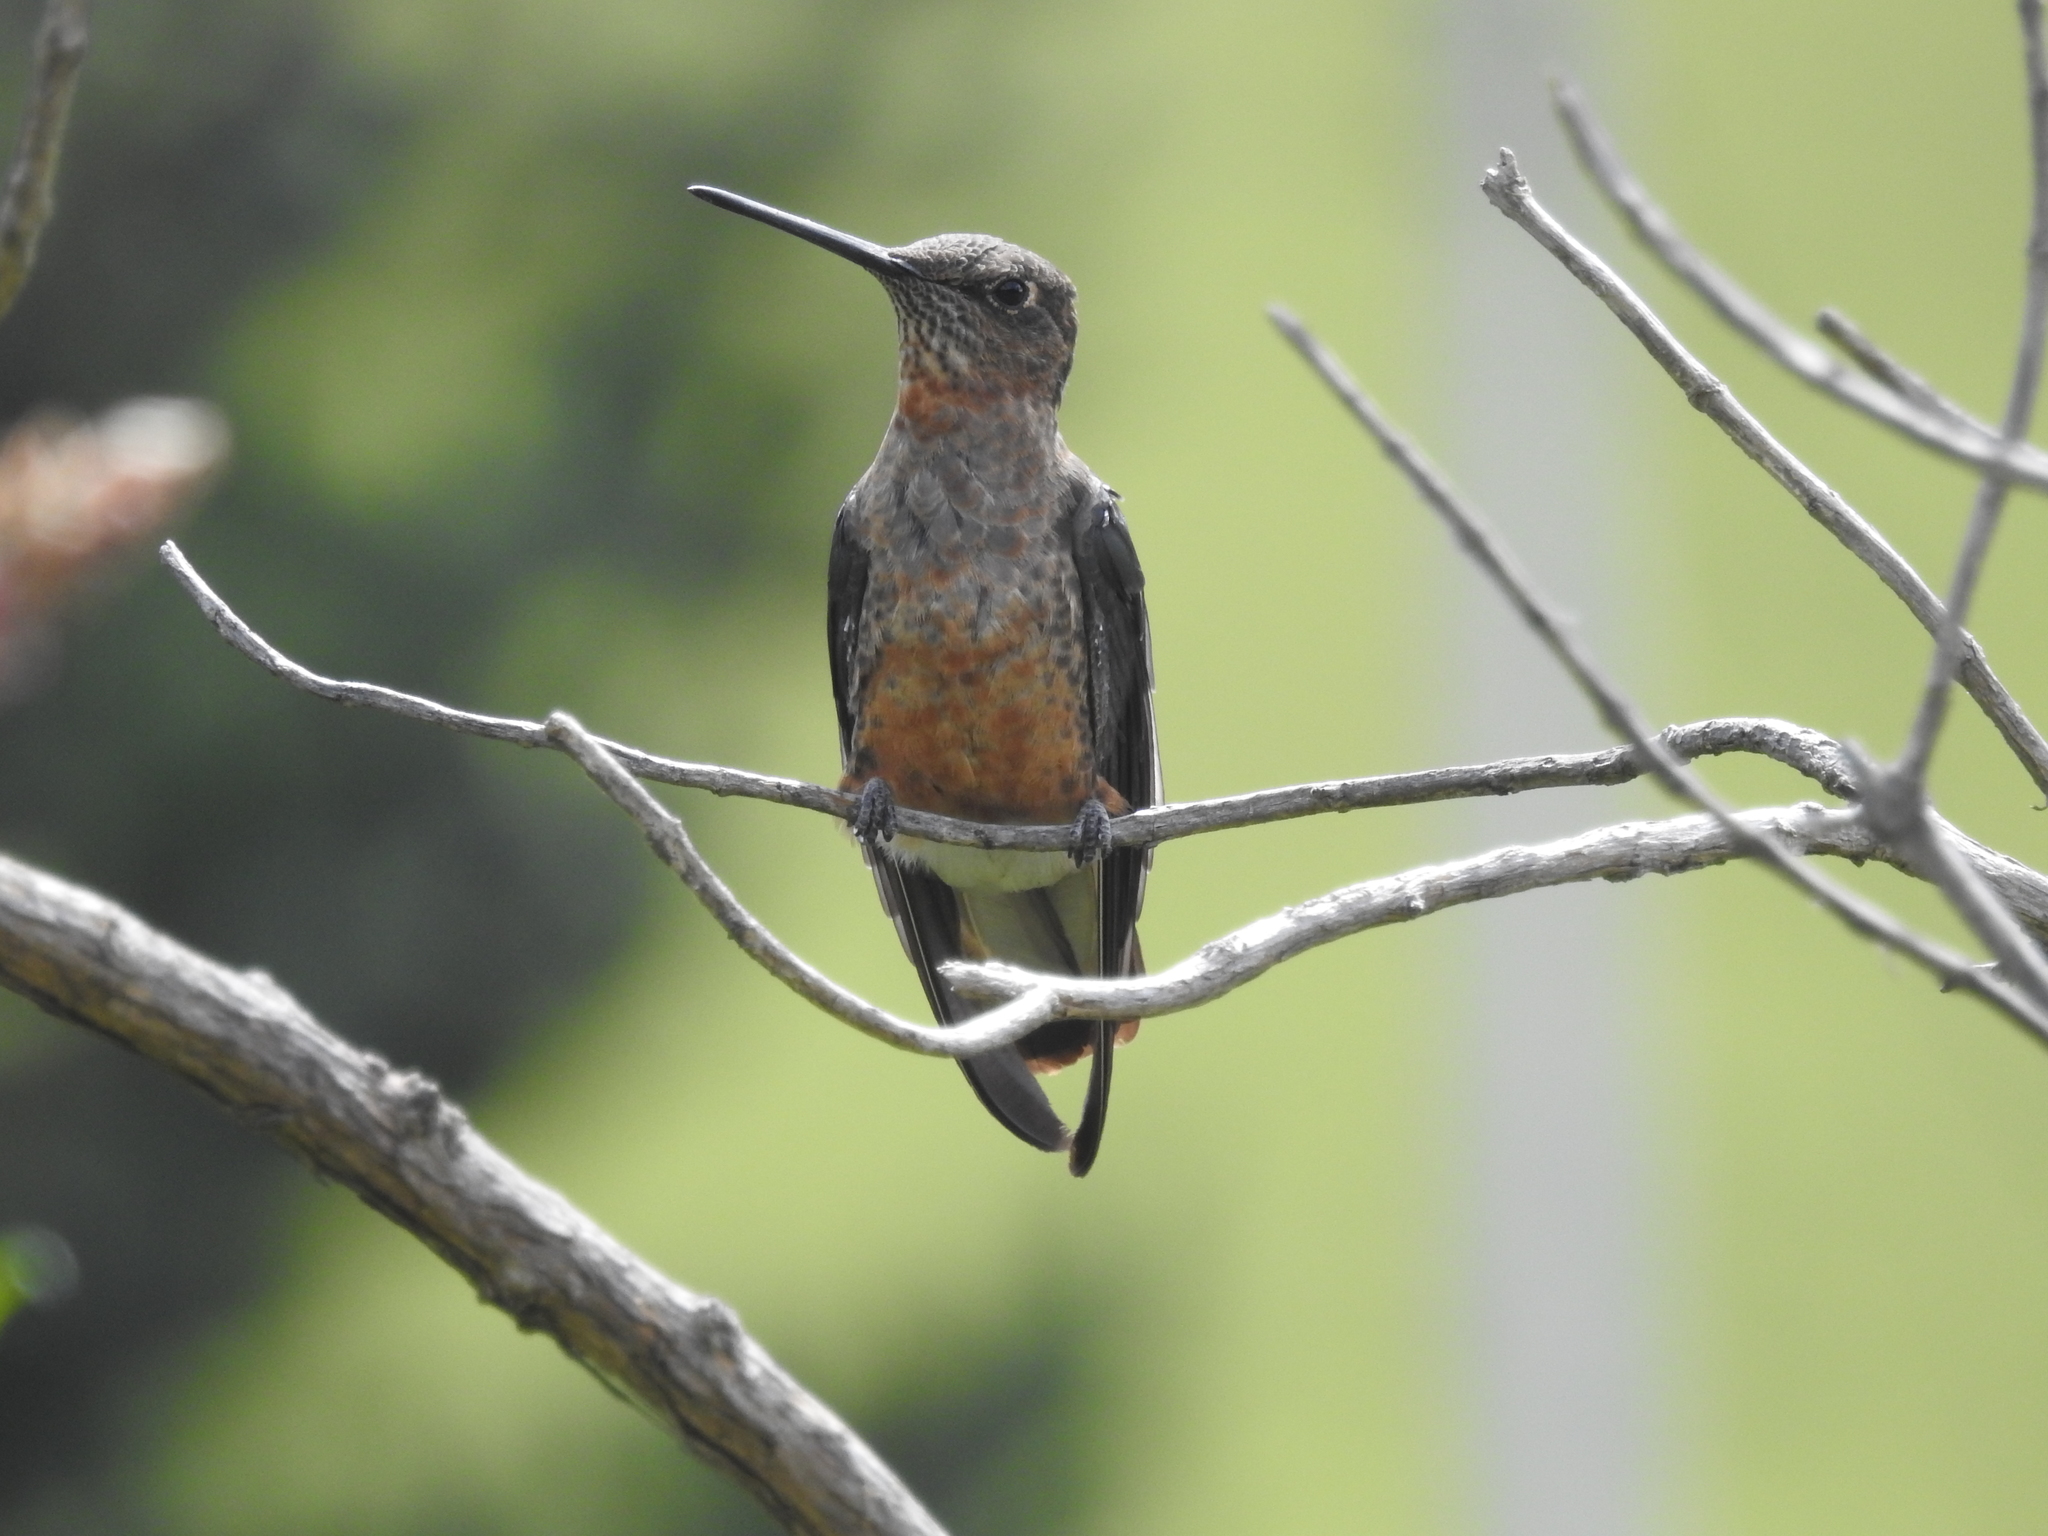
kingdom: Animalia
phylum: Chordata
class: Aves
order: Apodiformes
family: Trochilidae
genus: Patagona
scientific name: Patagona gigas
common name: Giant hummingbird
